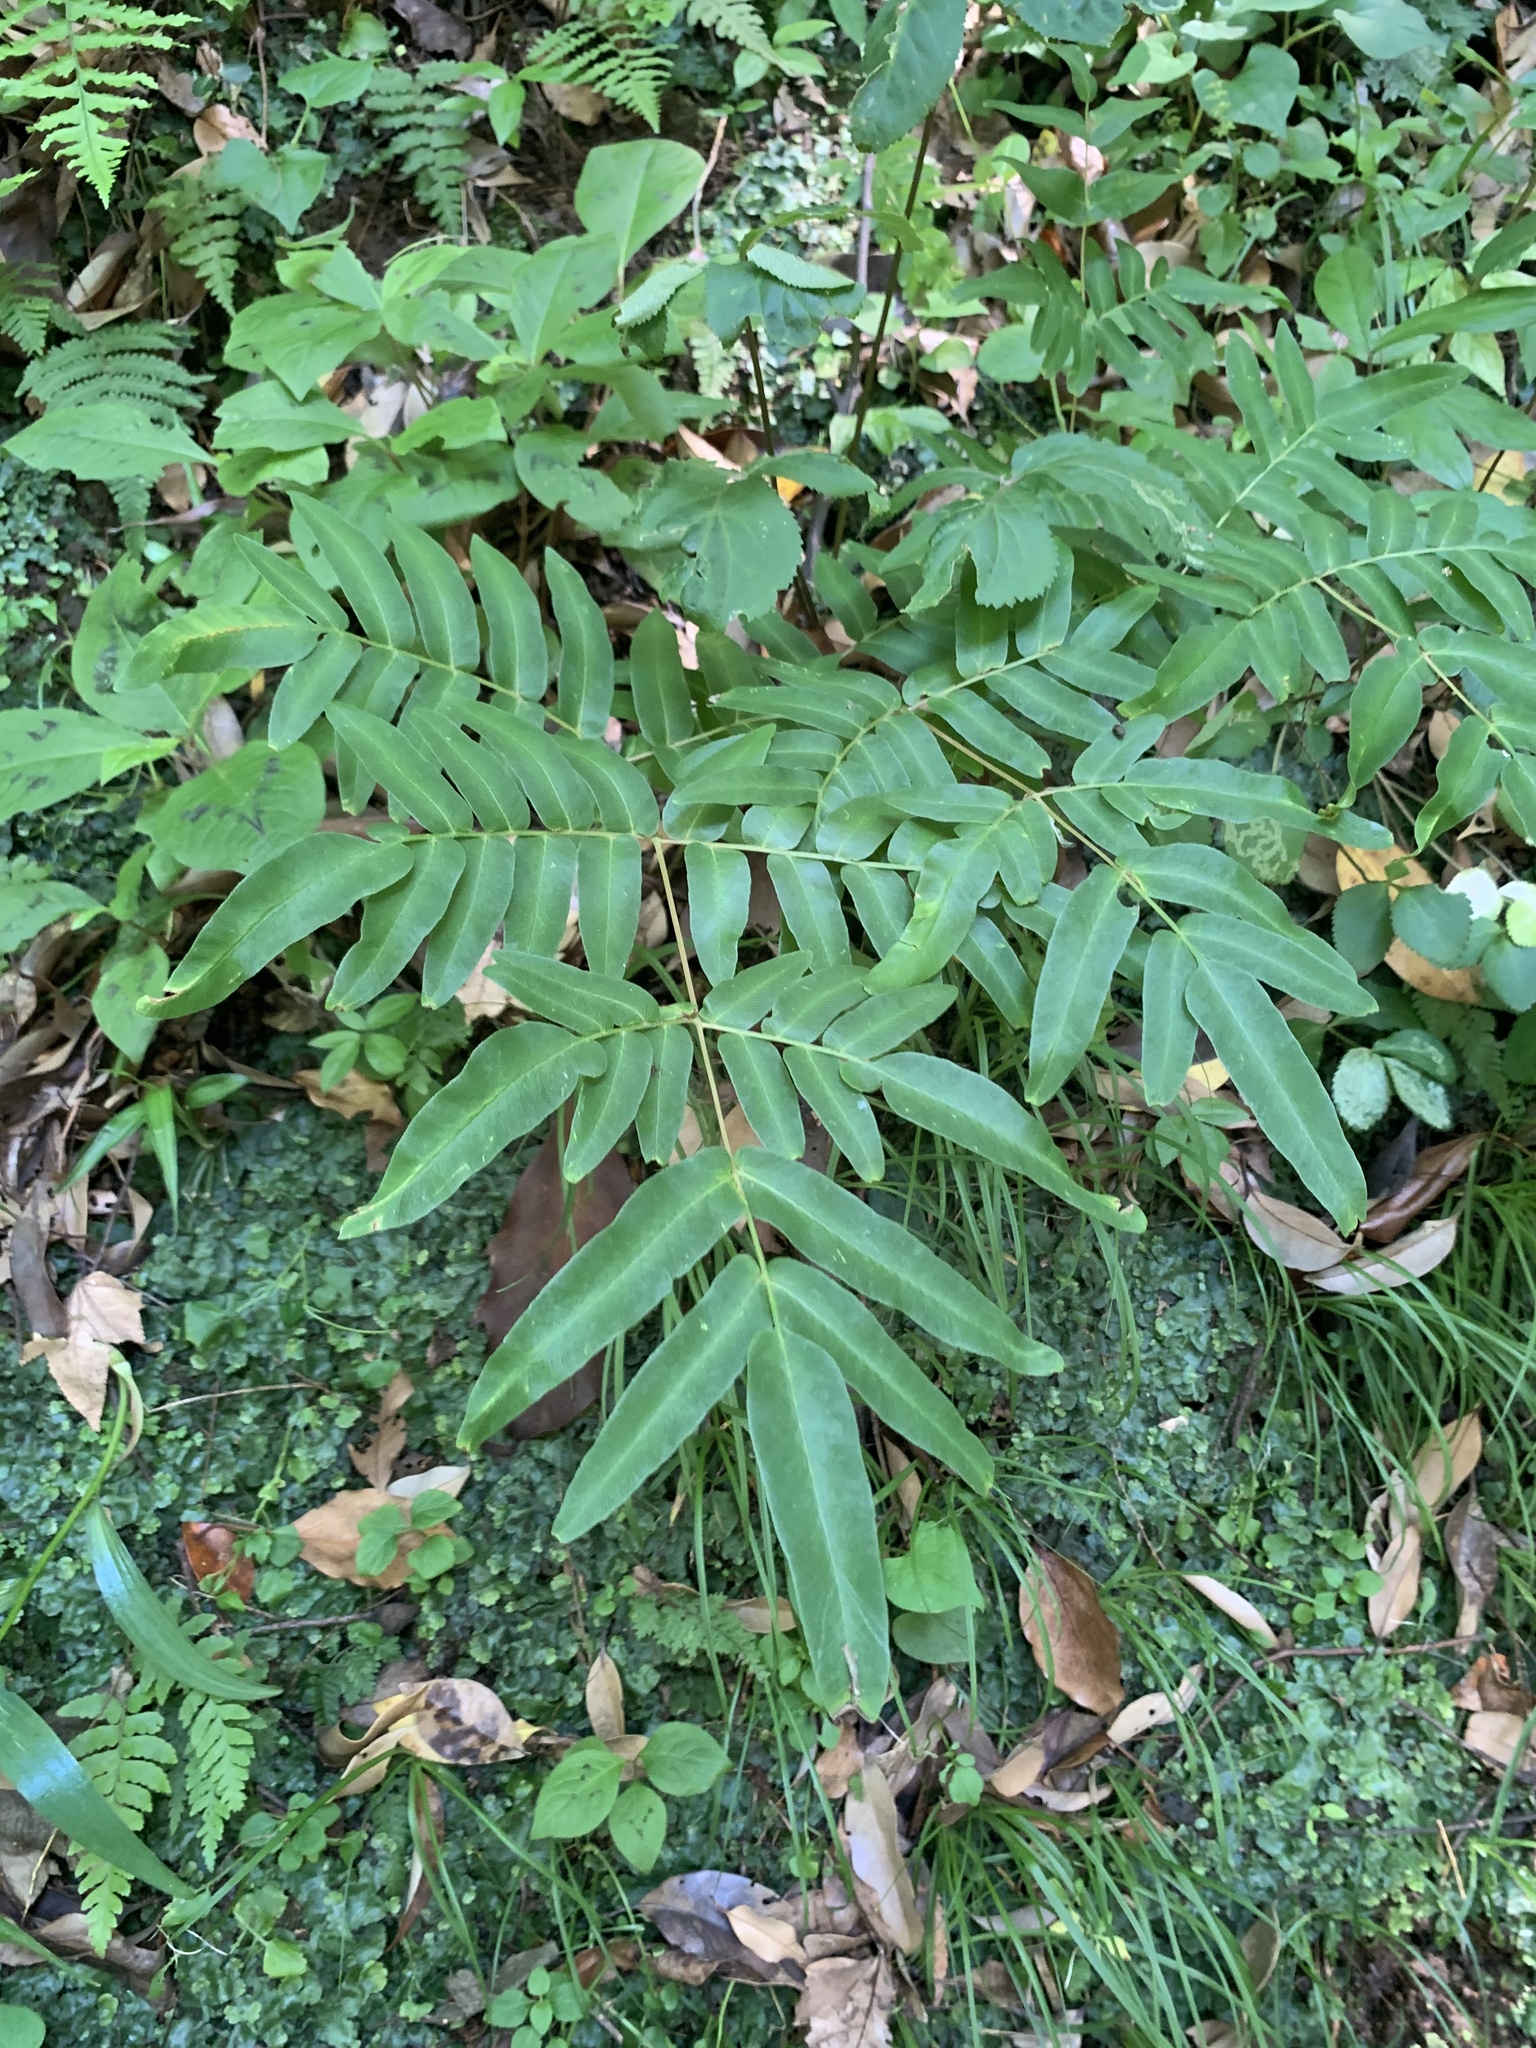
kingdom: Plantae
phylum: Tracheophyta
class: Polypodiopsida
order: Osmundales
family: Osmundaceae
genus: Osmunda
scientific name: Osmunda japonica
